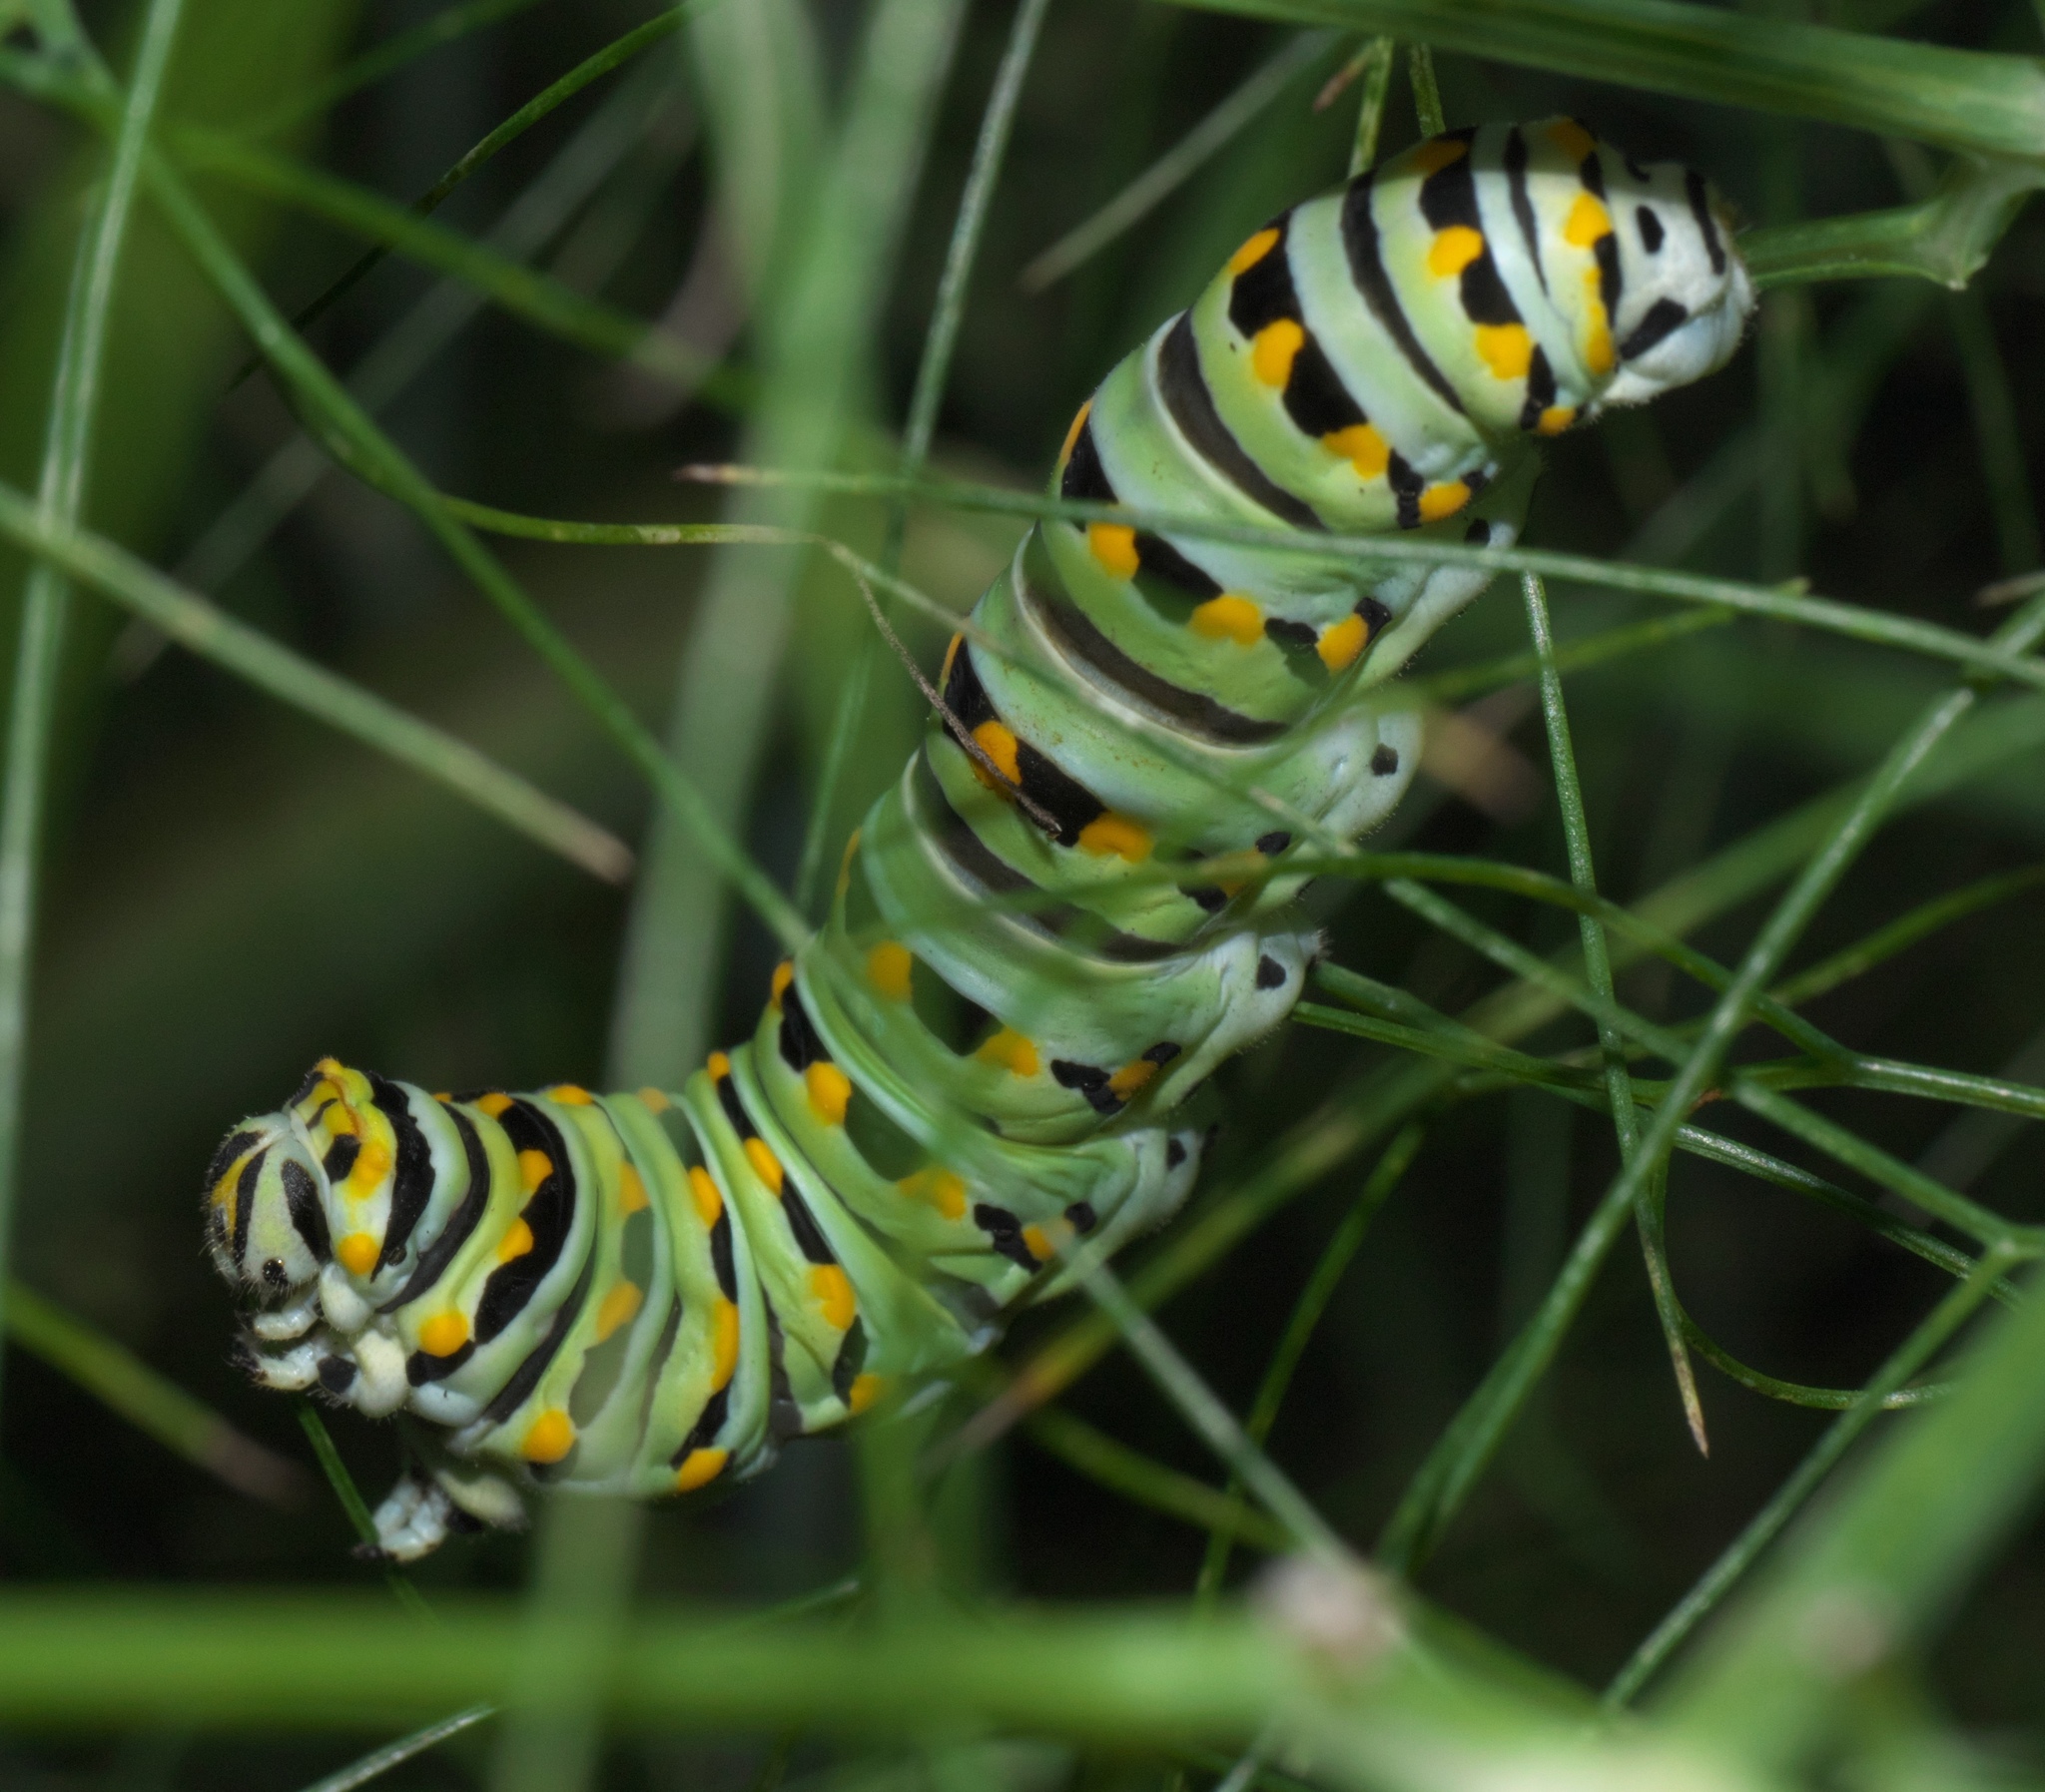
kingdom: Animalia
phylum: Arthropoda
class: Insecta
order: Lepidoptera
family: Papilionidae
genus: Papilio
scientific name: Papilio polyxenes
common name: Black swallowtail
